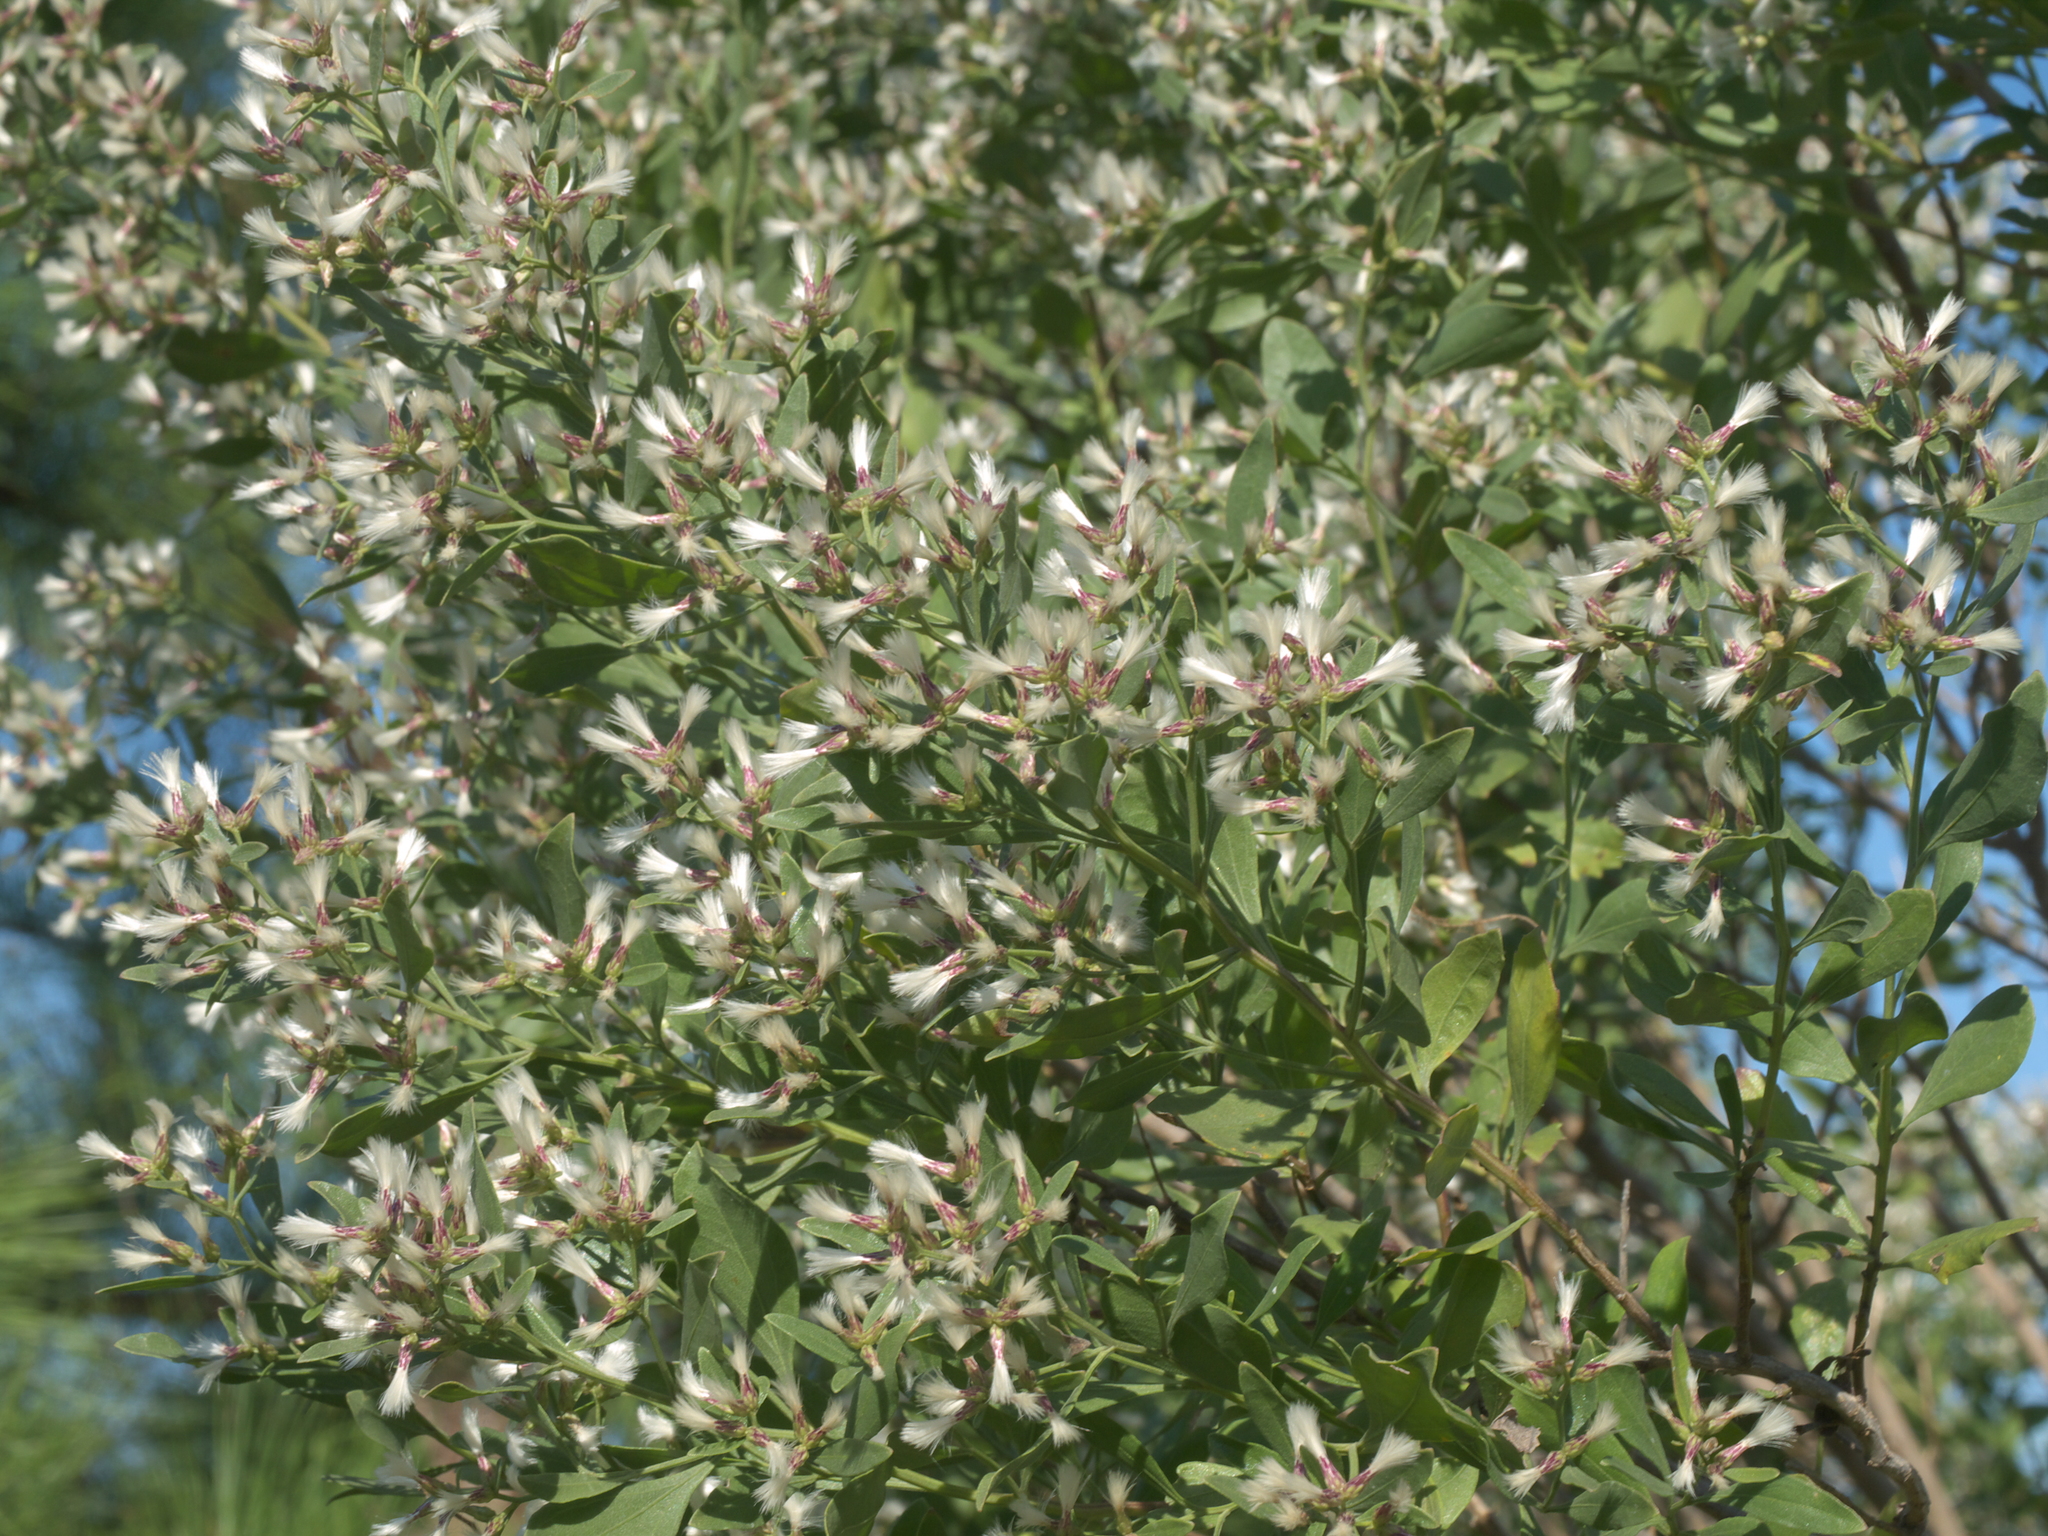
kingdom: Plantae
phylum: Tracheophyta
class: Magnoliopsida
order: Asterales
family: Asteraceae
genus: Baccharis
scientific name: Baccharis halimifolia
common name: Eastern baccharis
